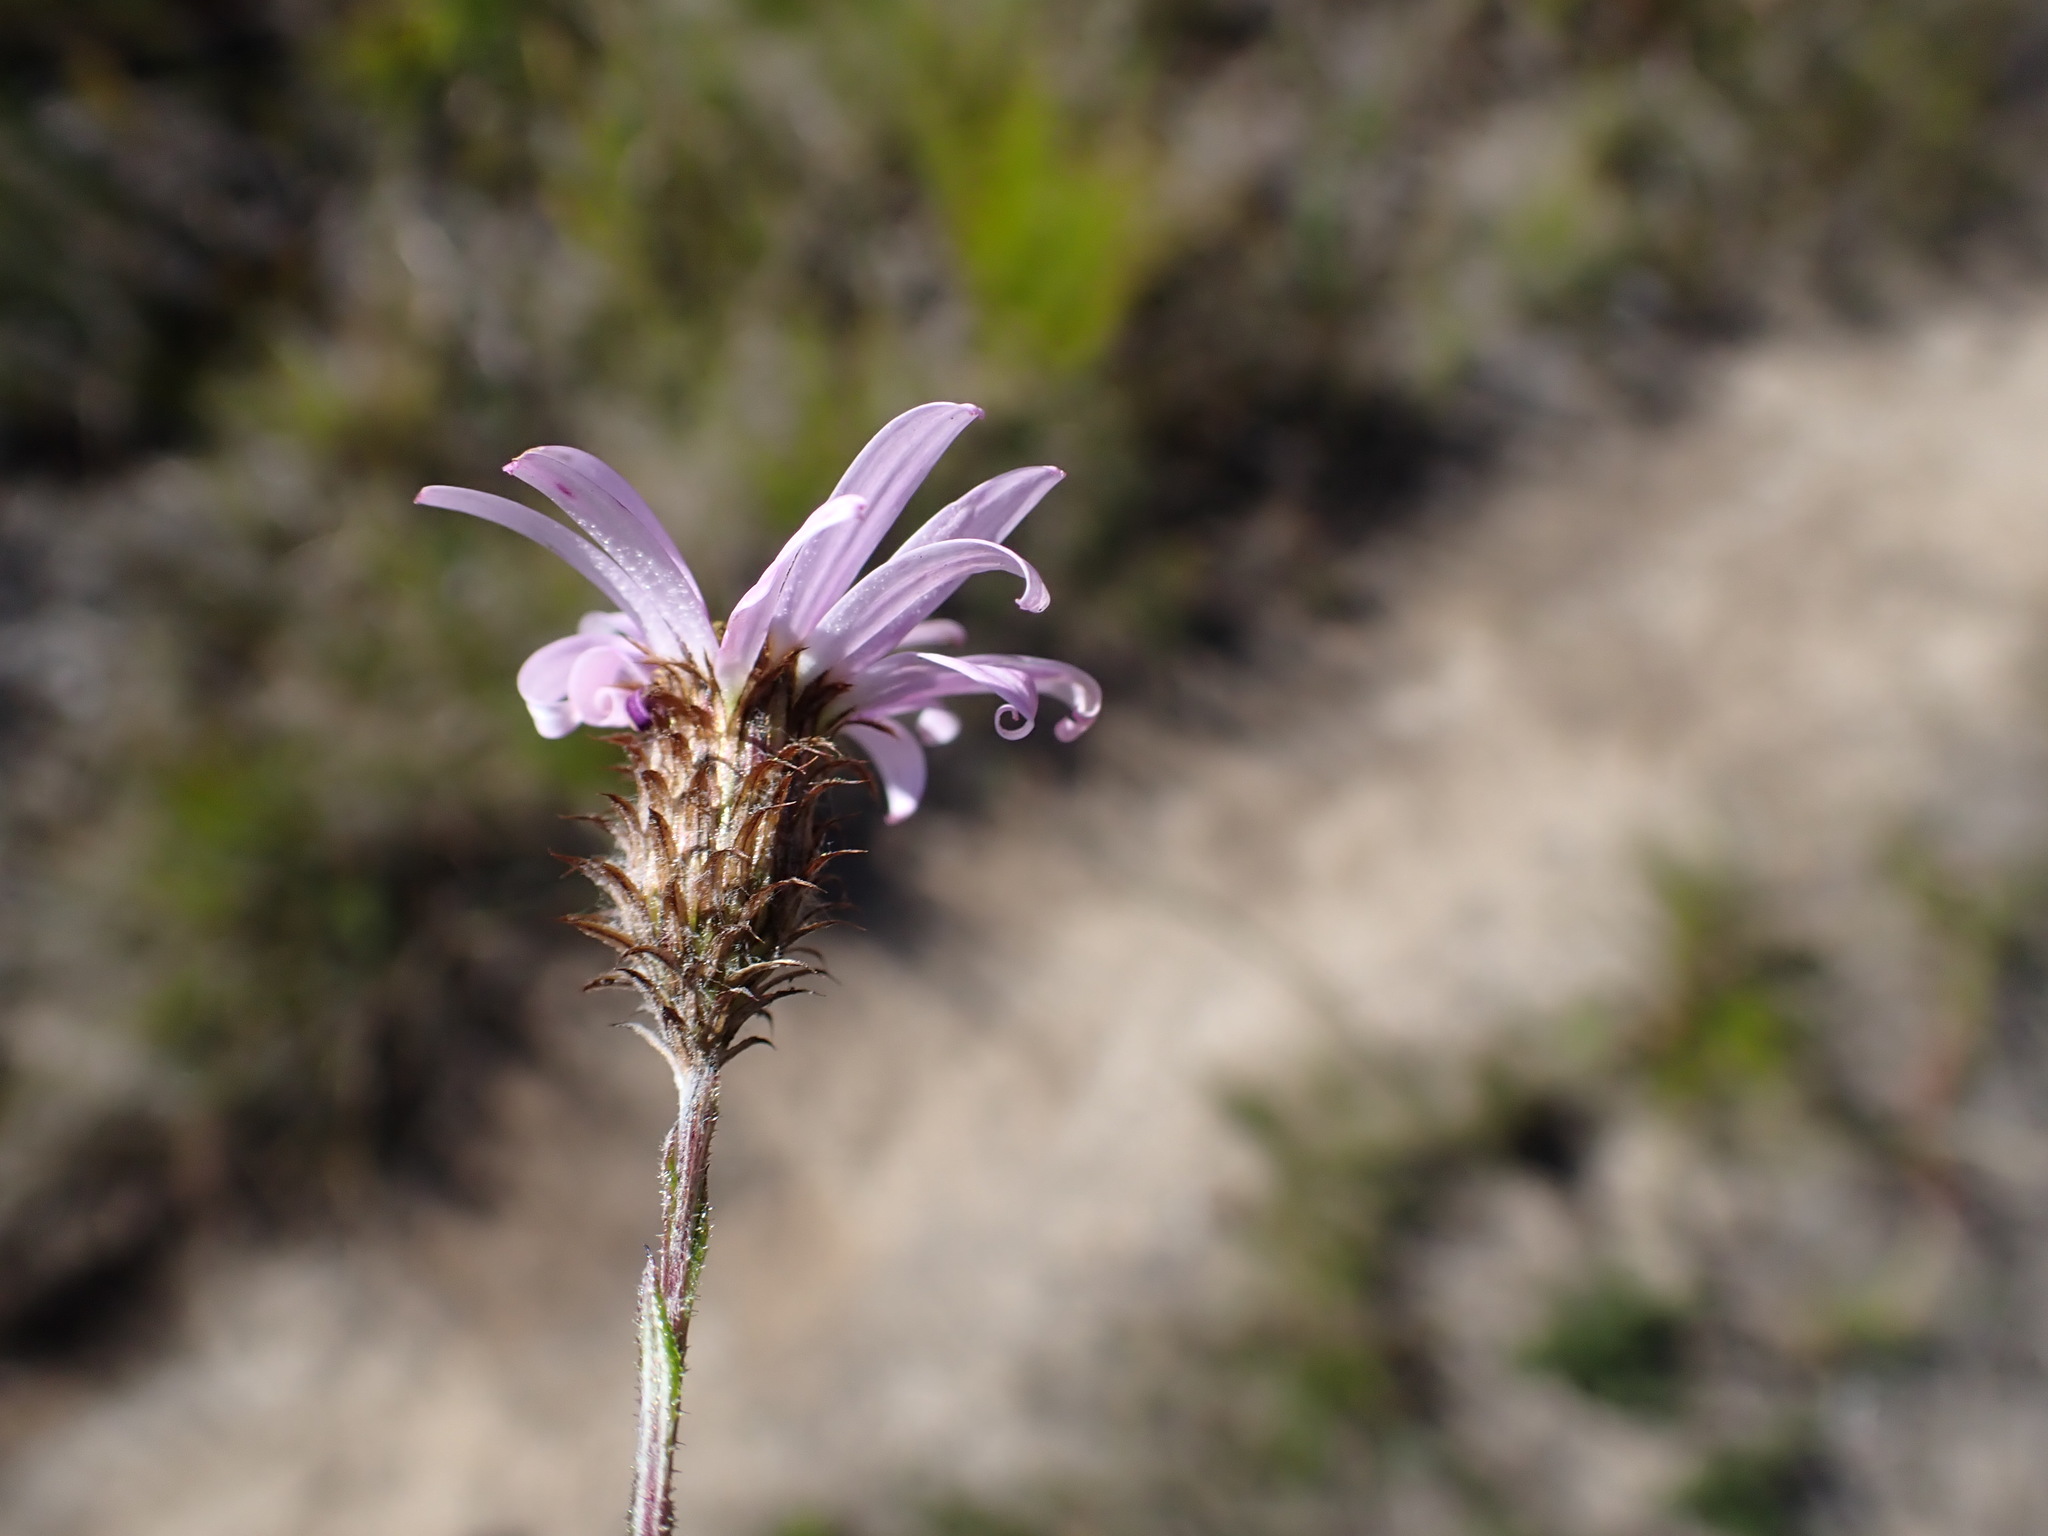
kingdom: Plantae
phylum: Tracheophyta
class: Magnoliopsida
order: Asterales
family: Asteraceae
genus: Athrixia
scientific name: Athrixia heterophylla
